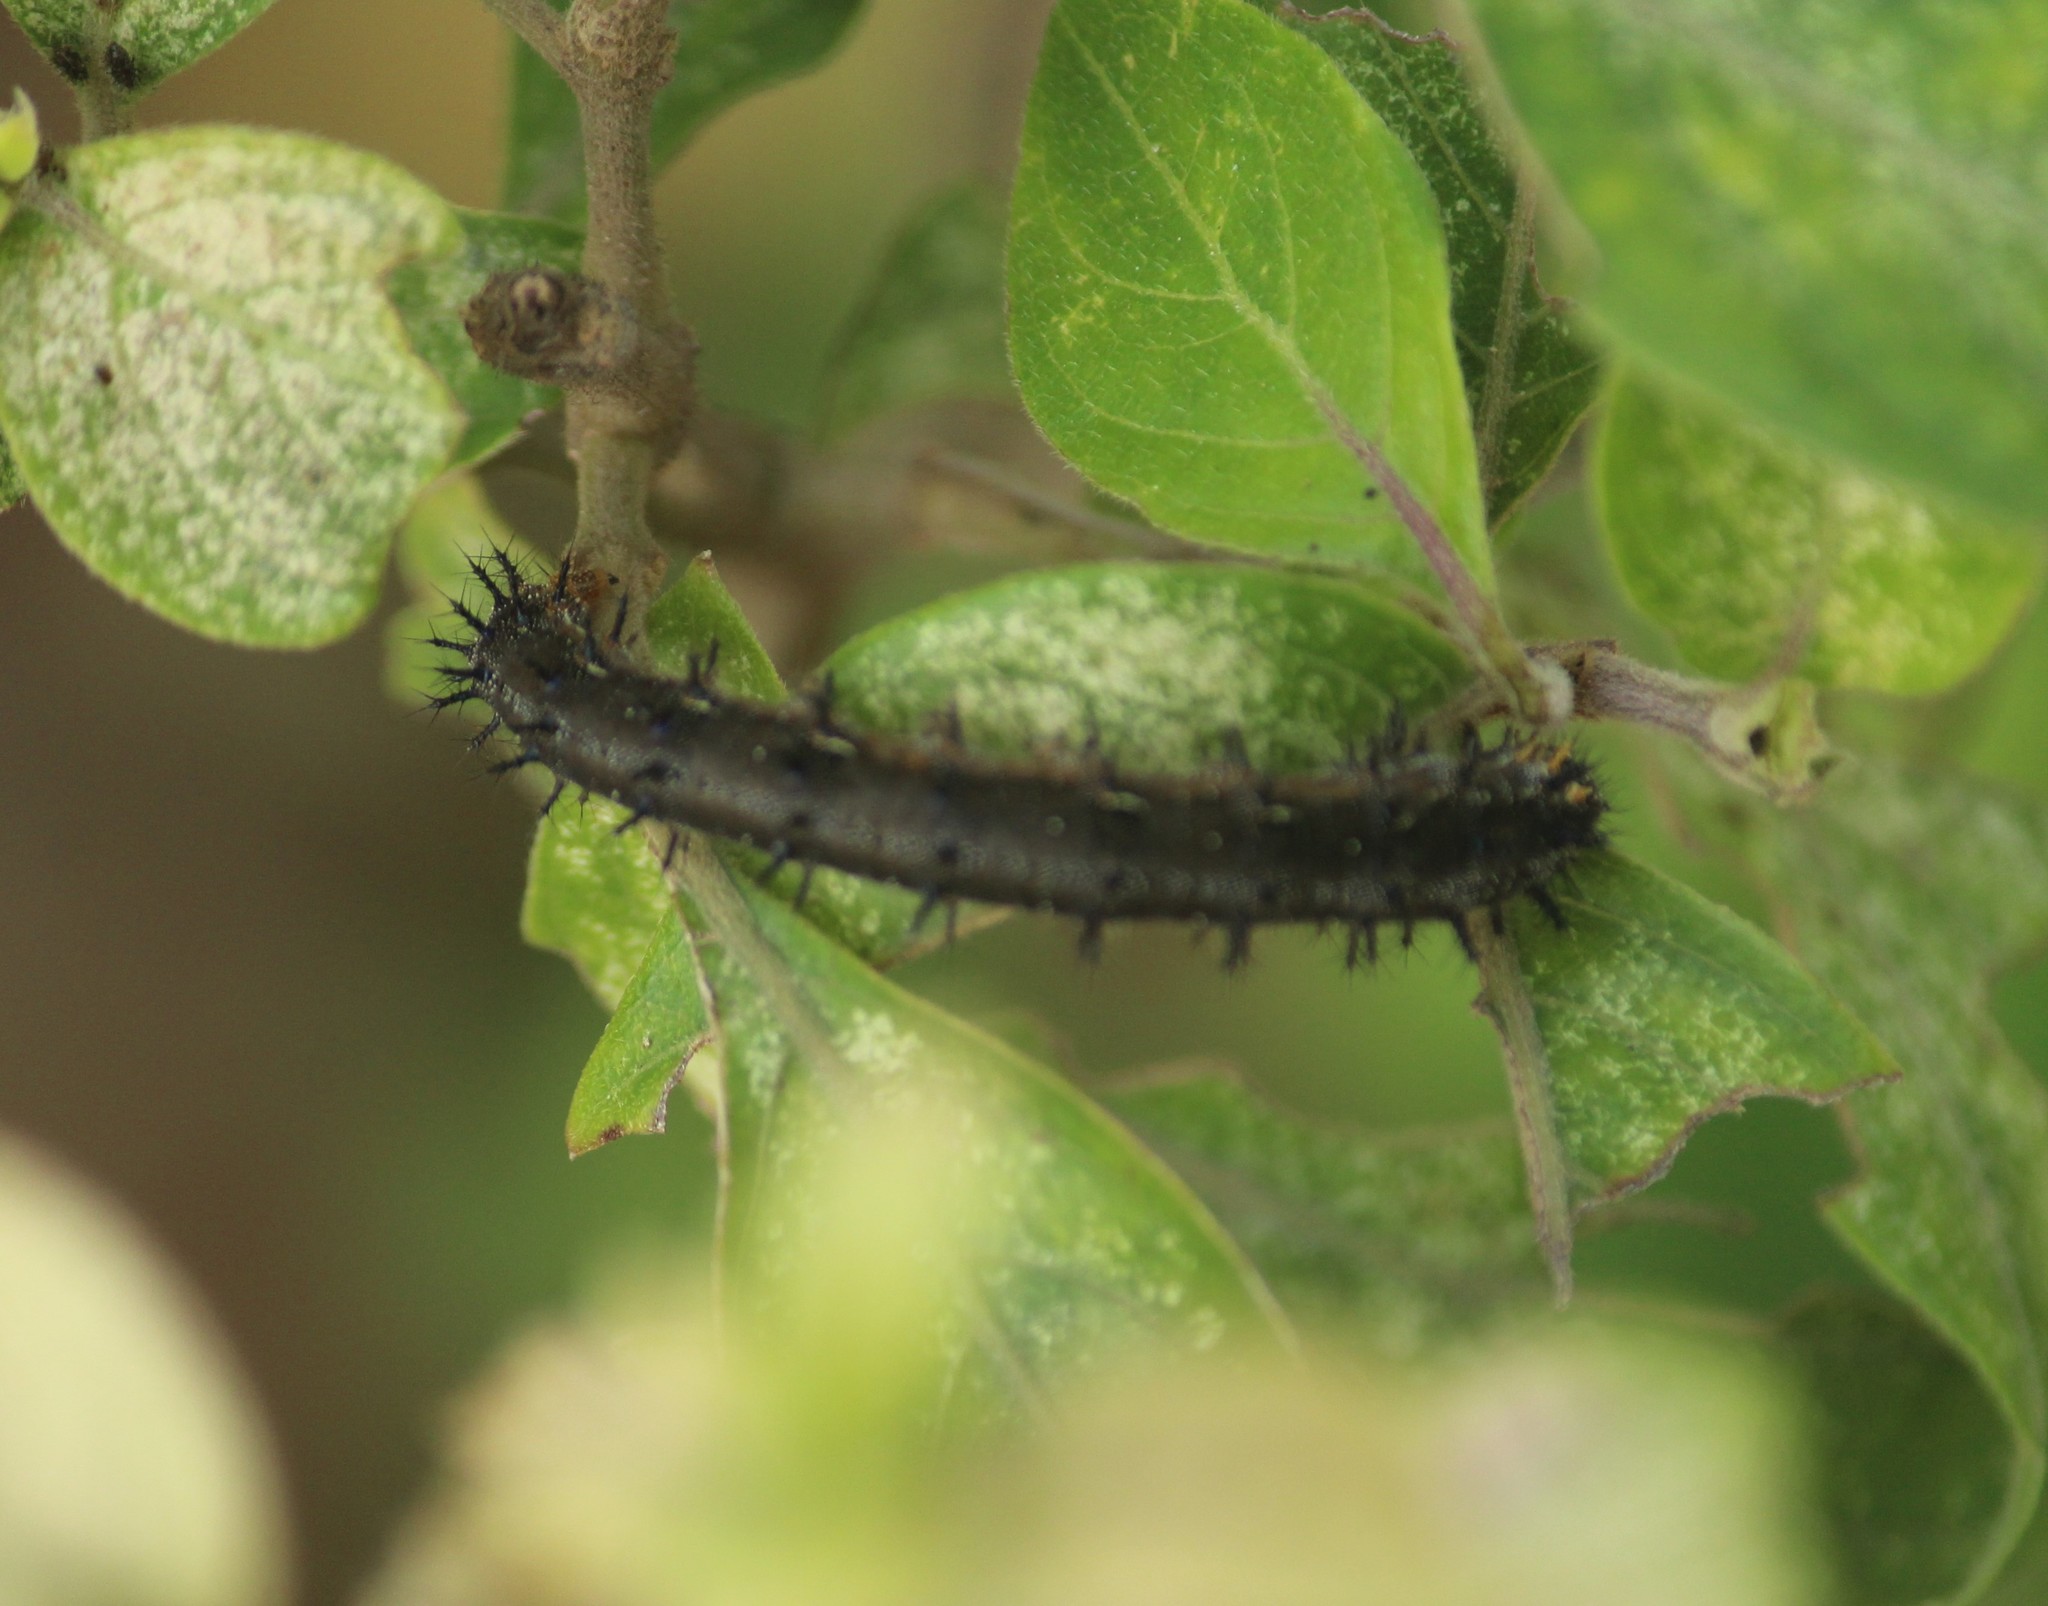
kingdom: Animalia
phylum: Arthropoda
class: Insecta
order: Lepidoptera
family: Nymphalidae
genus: Junonia
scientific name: Junonia lemonias
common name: Lemon pansy
